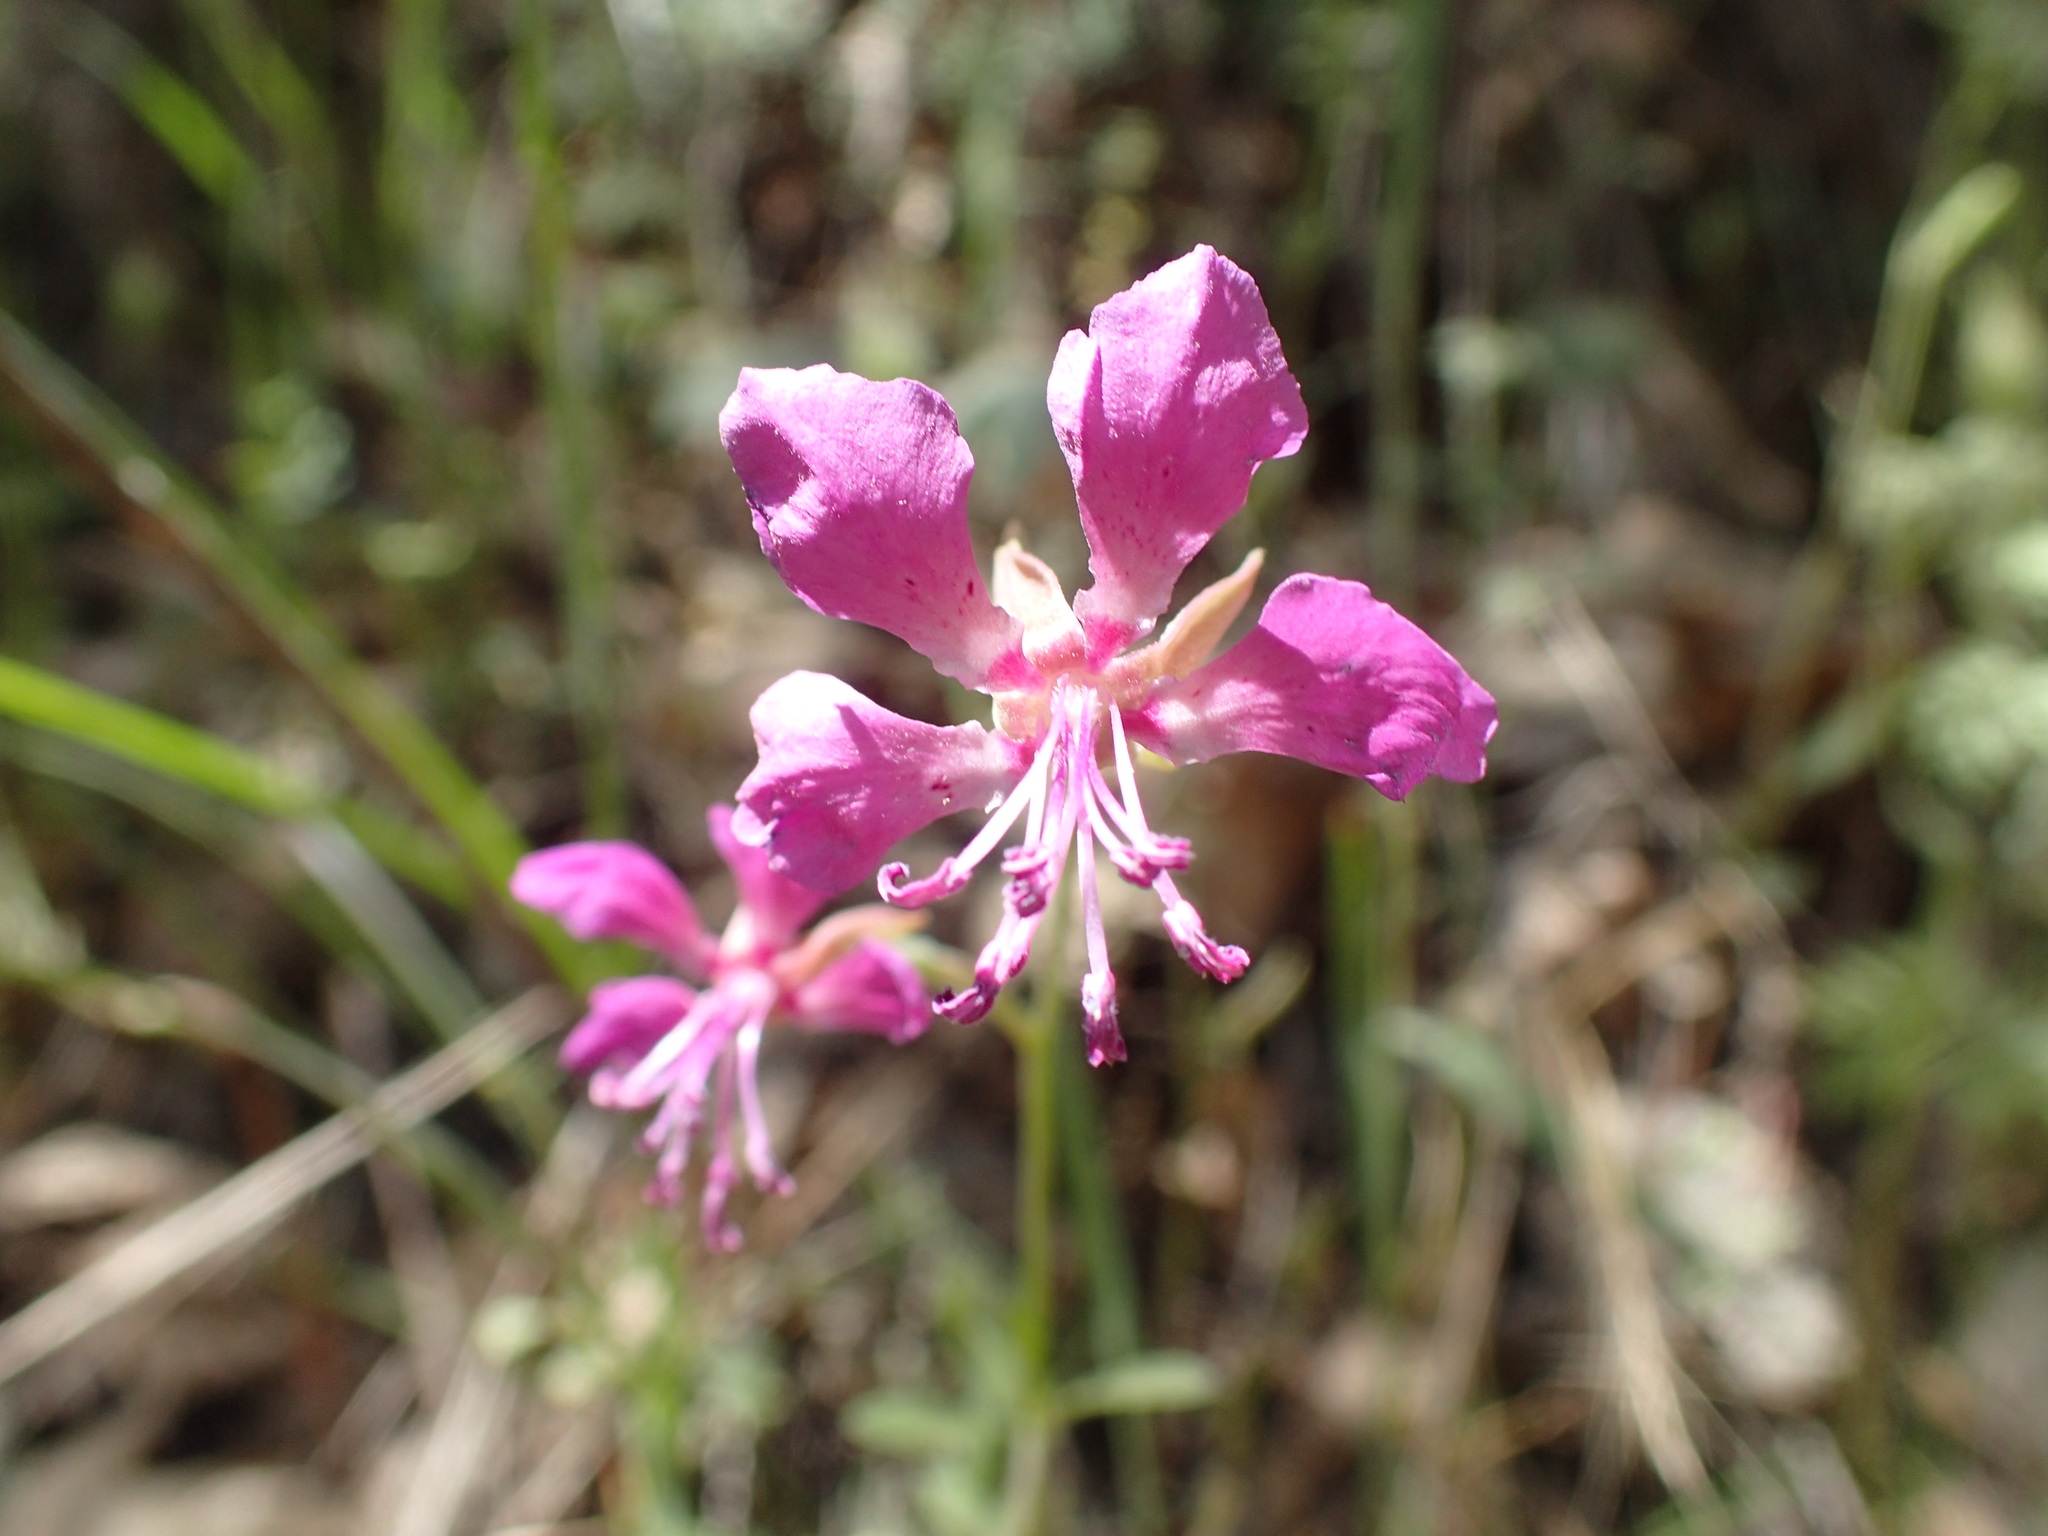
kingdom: Plantae
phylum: Tracheophyta
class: Magnoliopsida
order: Myrtales
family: Onagraceae
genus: Clarkia
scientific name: Clarkia rhomboidea
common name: Broadleaf clarkia
